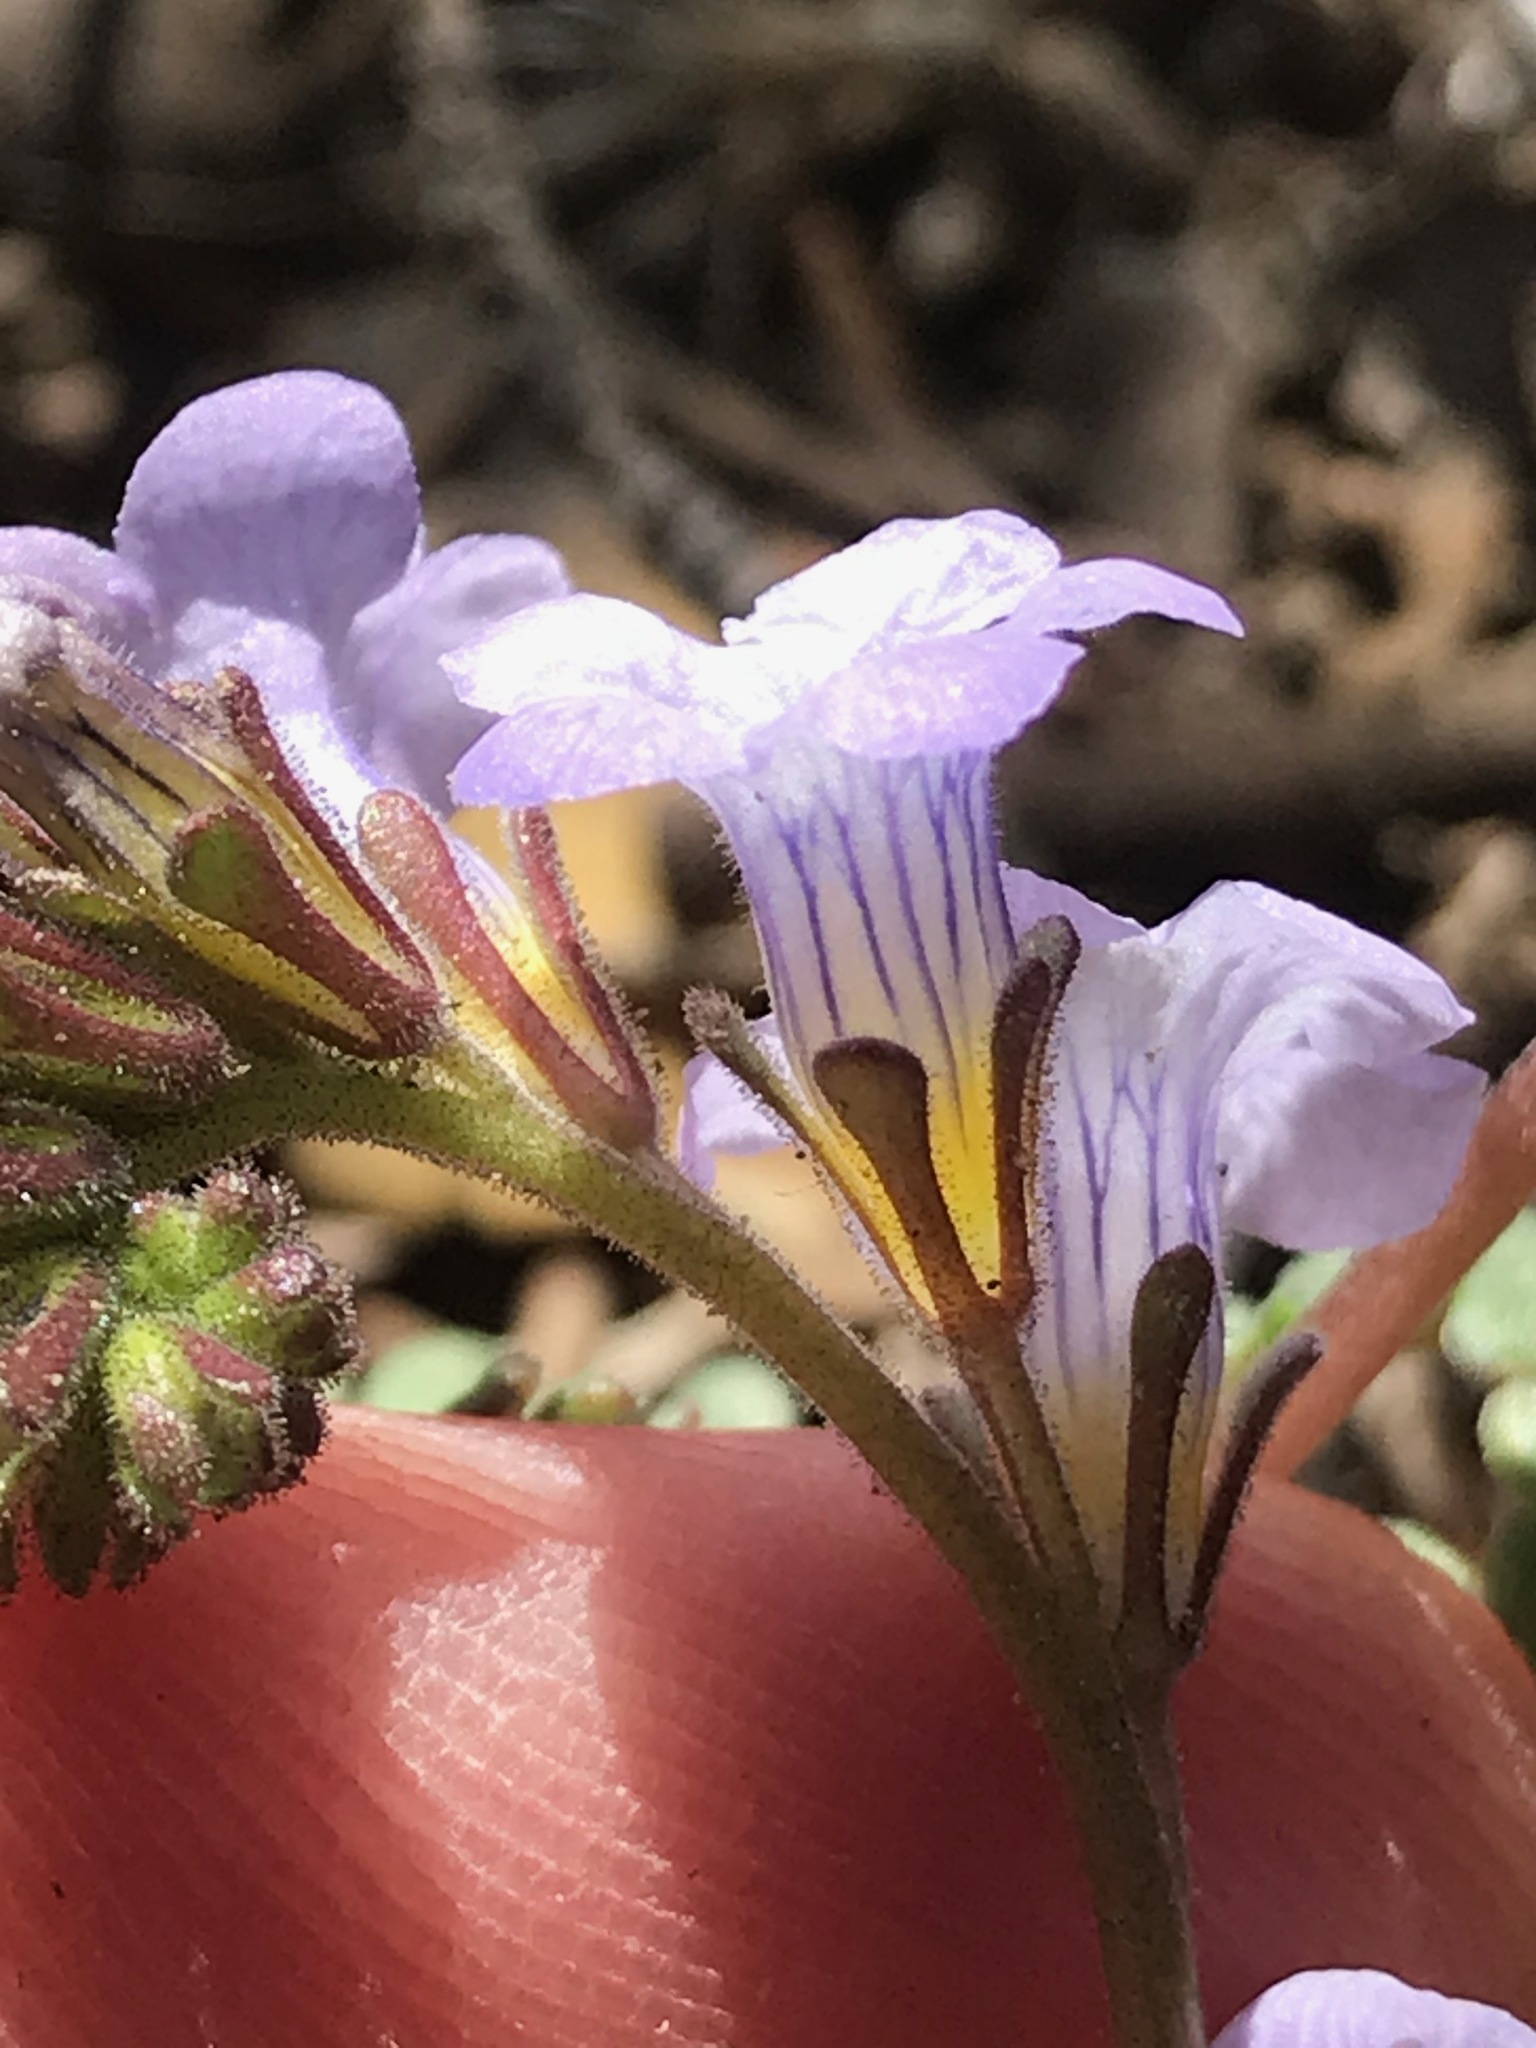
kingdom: Plantae
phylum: Tracheophyta
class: Magnoliopsida
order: Boraginales
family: Hydrophyllaceae
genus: Phacelia
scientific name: Phacelia fremontii
